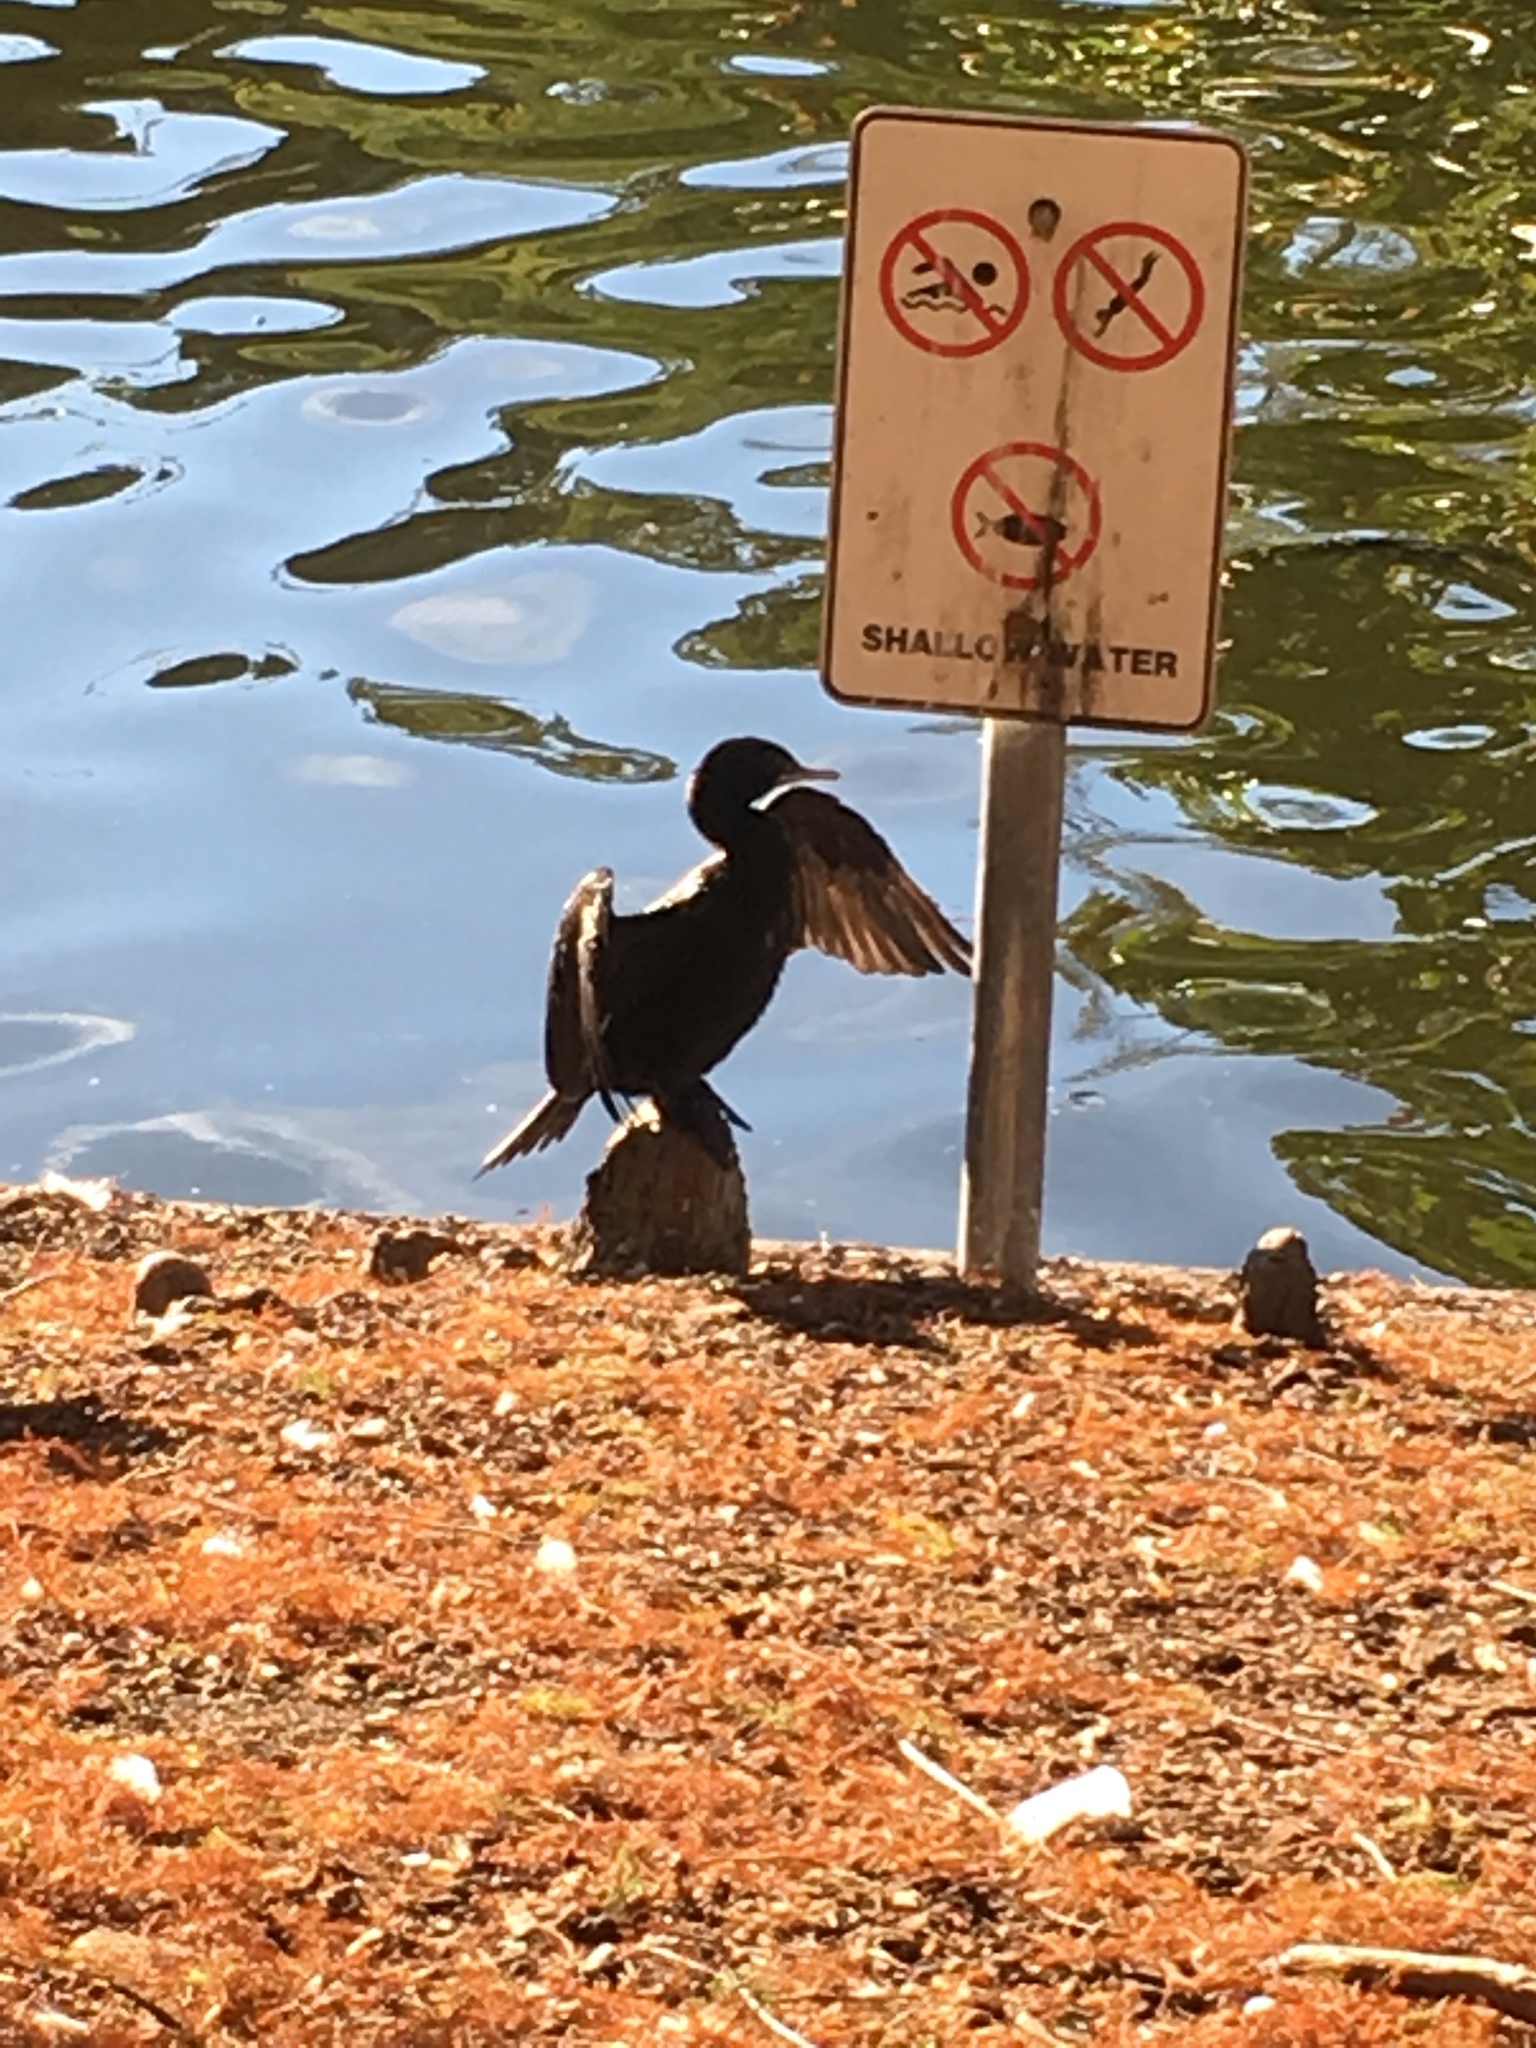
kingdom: Animalia
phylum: Chordata
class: Aves
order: Suliformes
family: Phalacrocoracidae
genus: Phalacrocorax
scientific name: Phalacrocorax sulcirostris
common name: Little black cormorant
